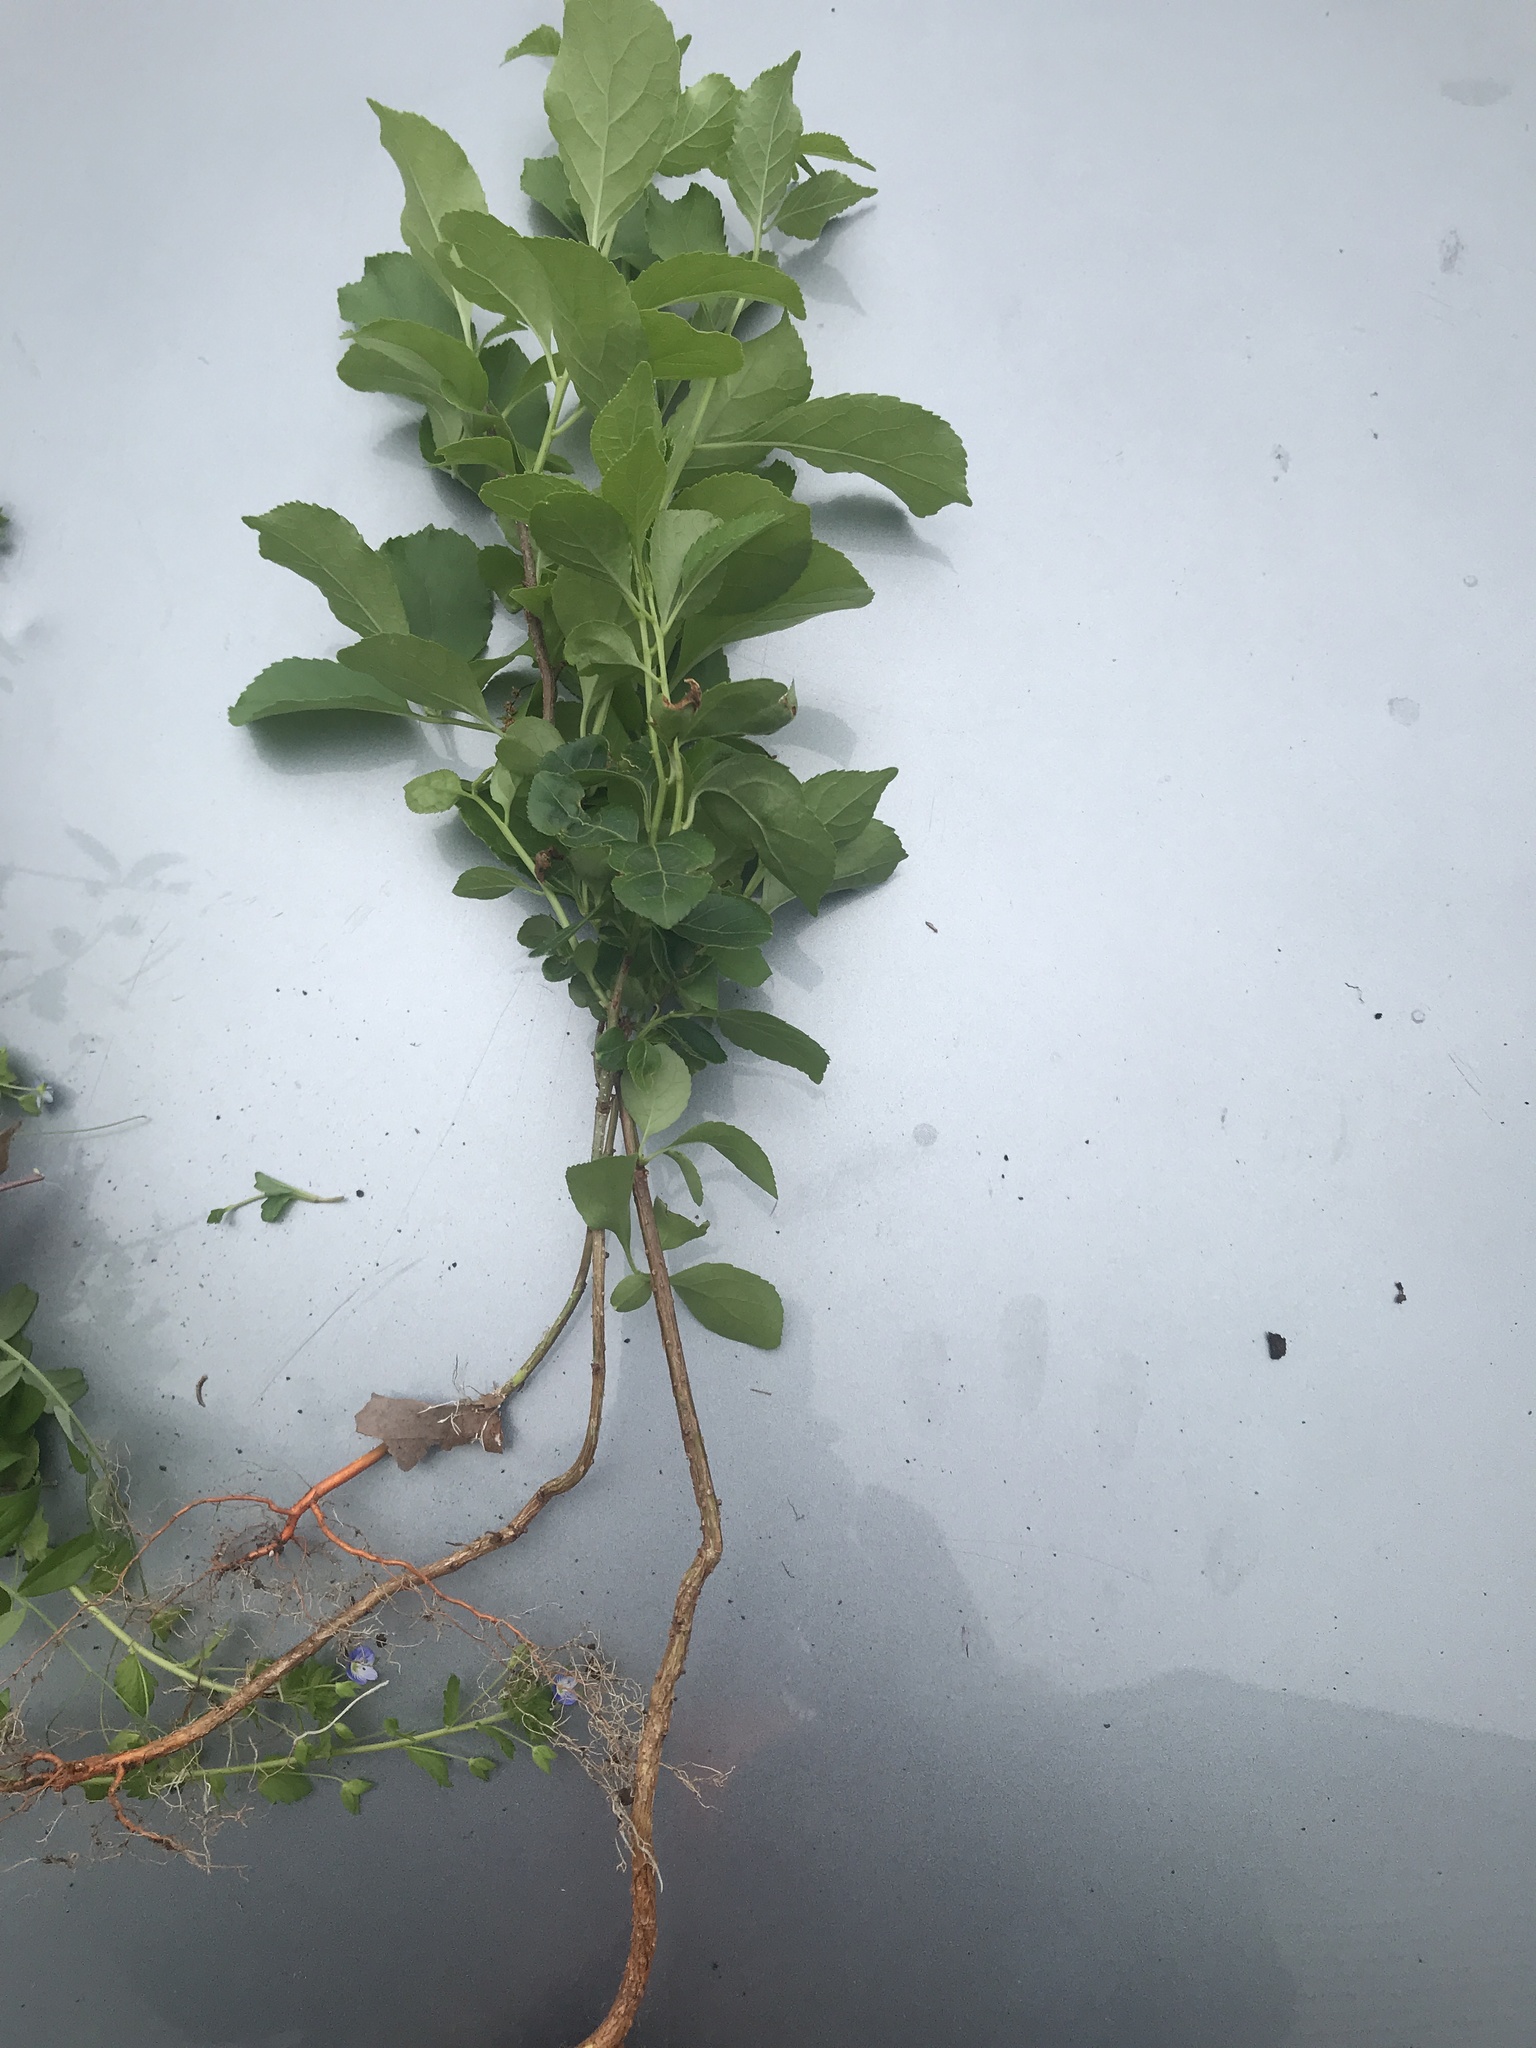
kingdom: Plantae
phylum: Tracheophyta
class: Magnoliopsida
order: Celastrales
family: Celastraceae
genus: Celastrus
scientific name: Celastrus orbiculatus
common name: Oriental bittersweet
